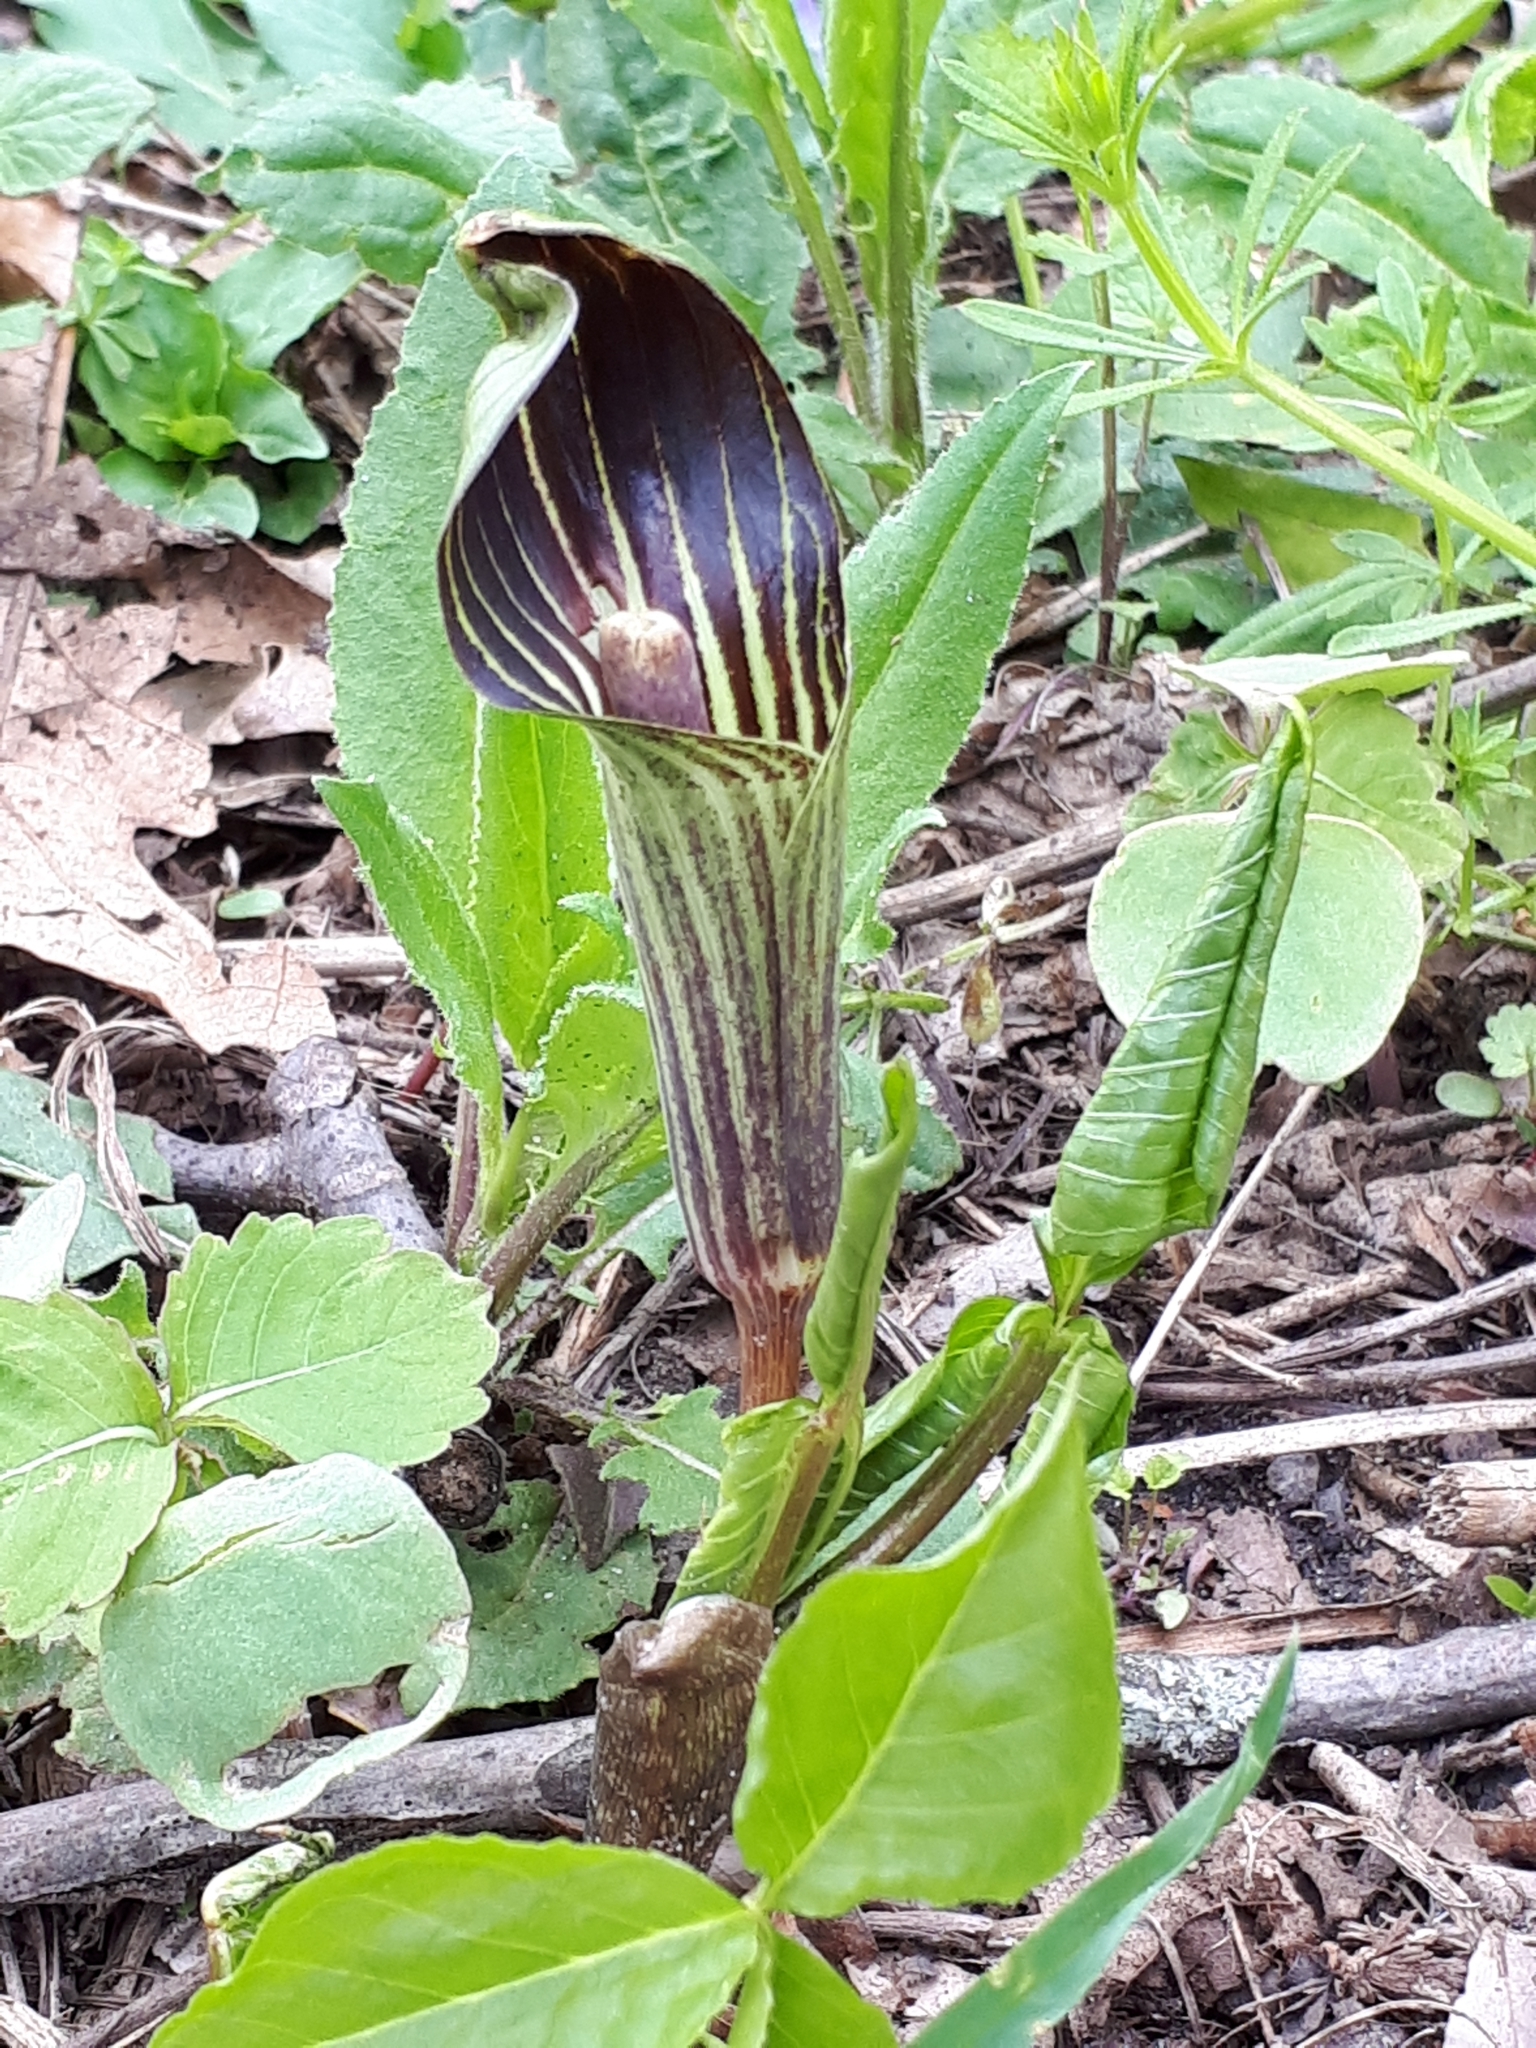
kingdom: Plantae
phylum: Tracheophyta
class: Liliopsida
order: Alismatales
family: Araceae
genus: Arisaema
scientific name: Arisaema triphyllum
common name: Jack-in-the-pulpit
